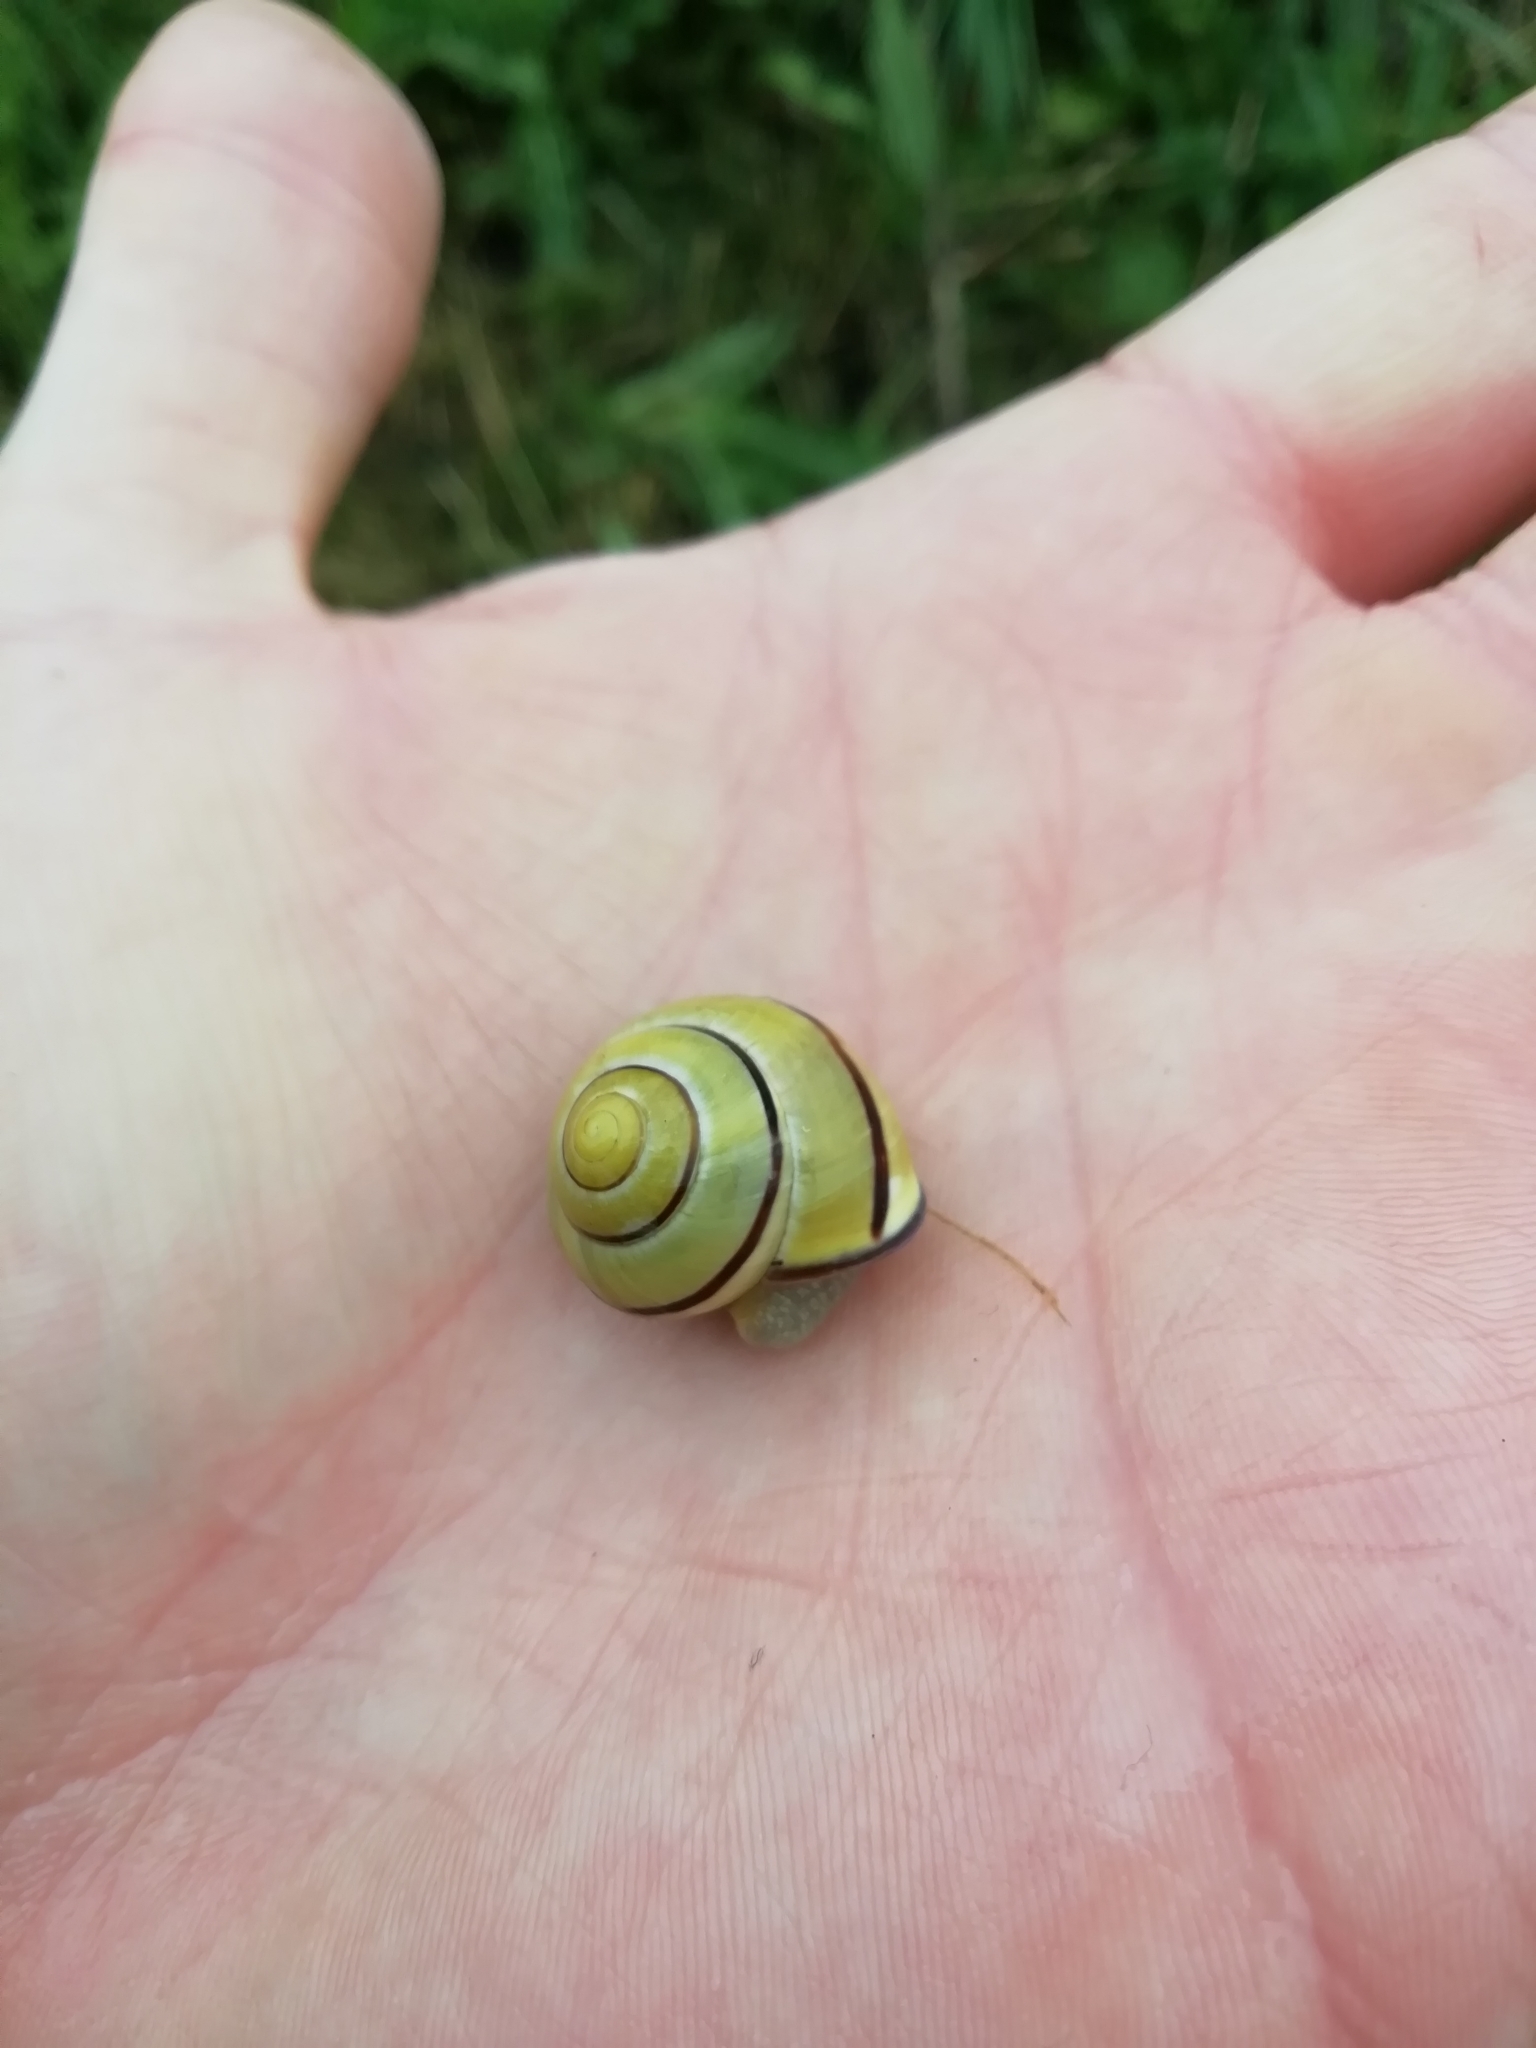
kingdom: Animalia
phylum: Mollusca
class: Gastropoda
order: Stylommatophora
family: Helicidae
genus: Cepaea
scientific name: Cepaea nemoralis
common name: Grovesnail
